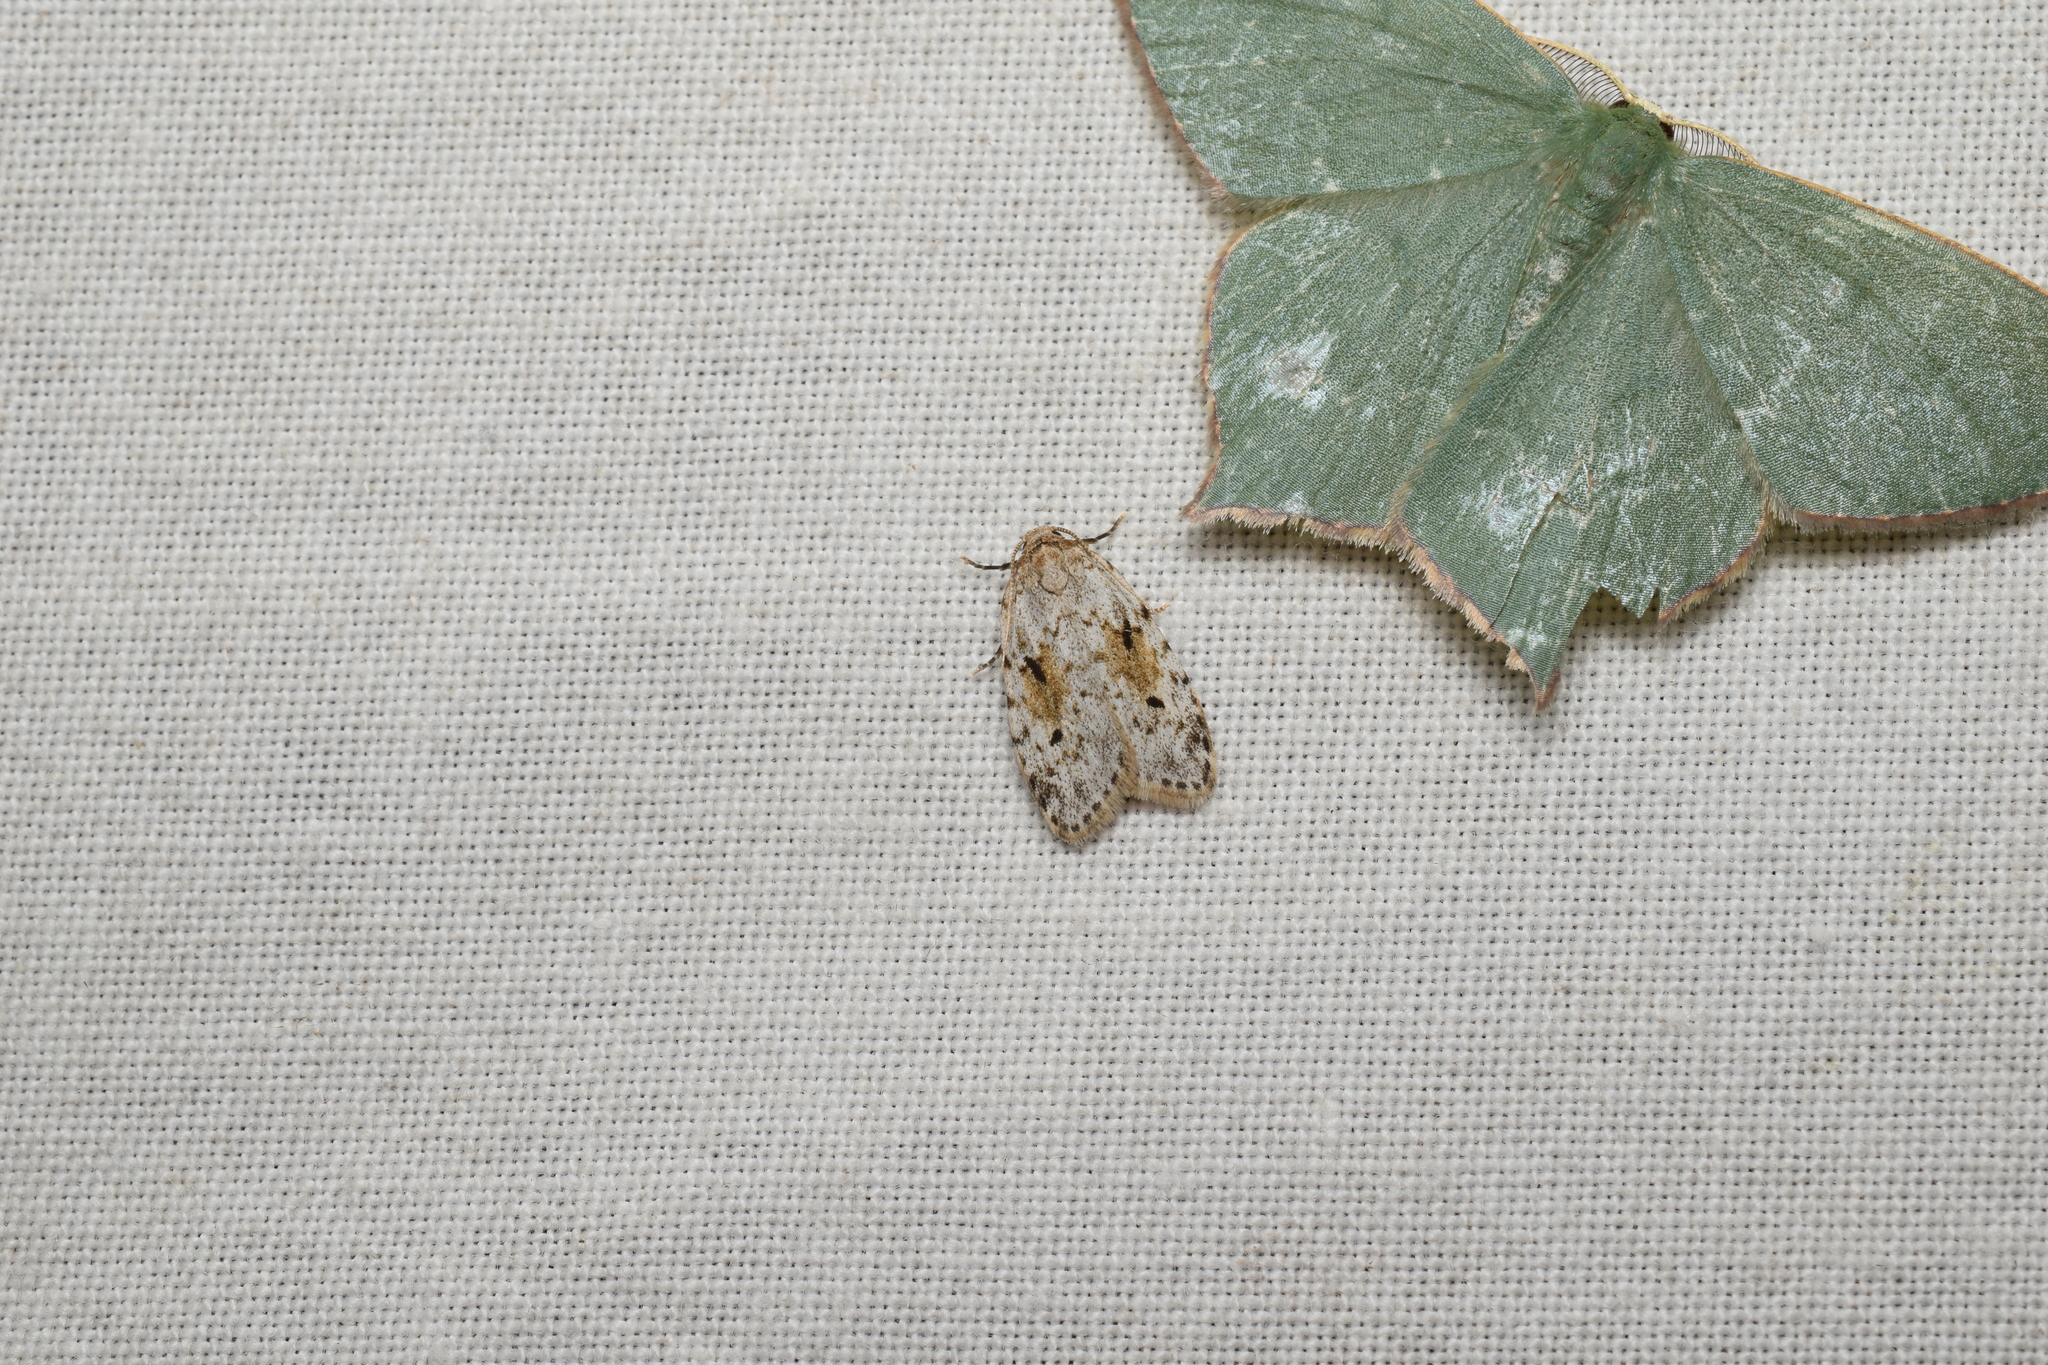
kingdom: Animalia
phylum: Arthropoda
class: Insecta
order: Lepidoptera
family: Erebidae
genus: Siccia
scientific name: Siccia obscura
